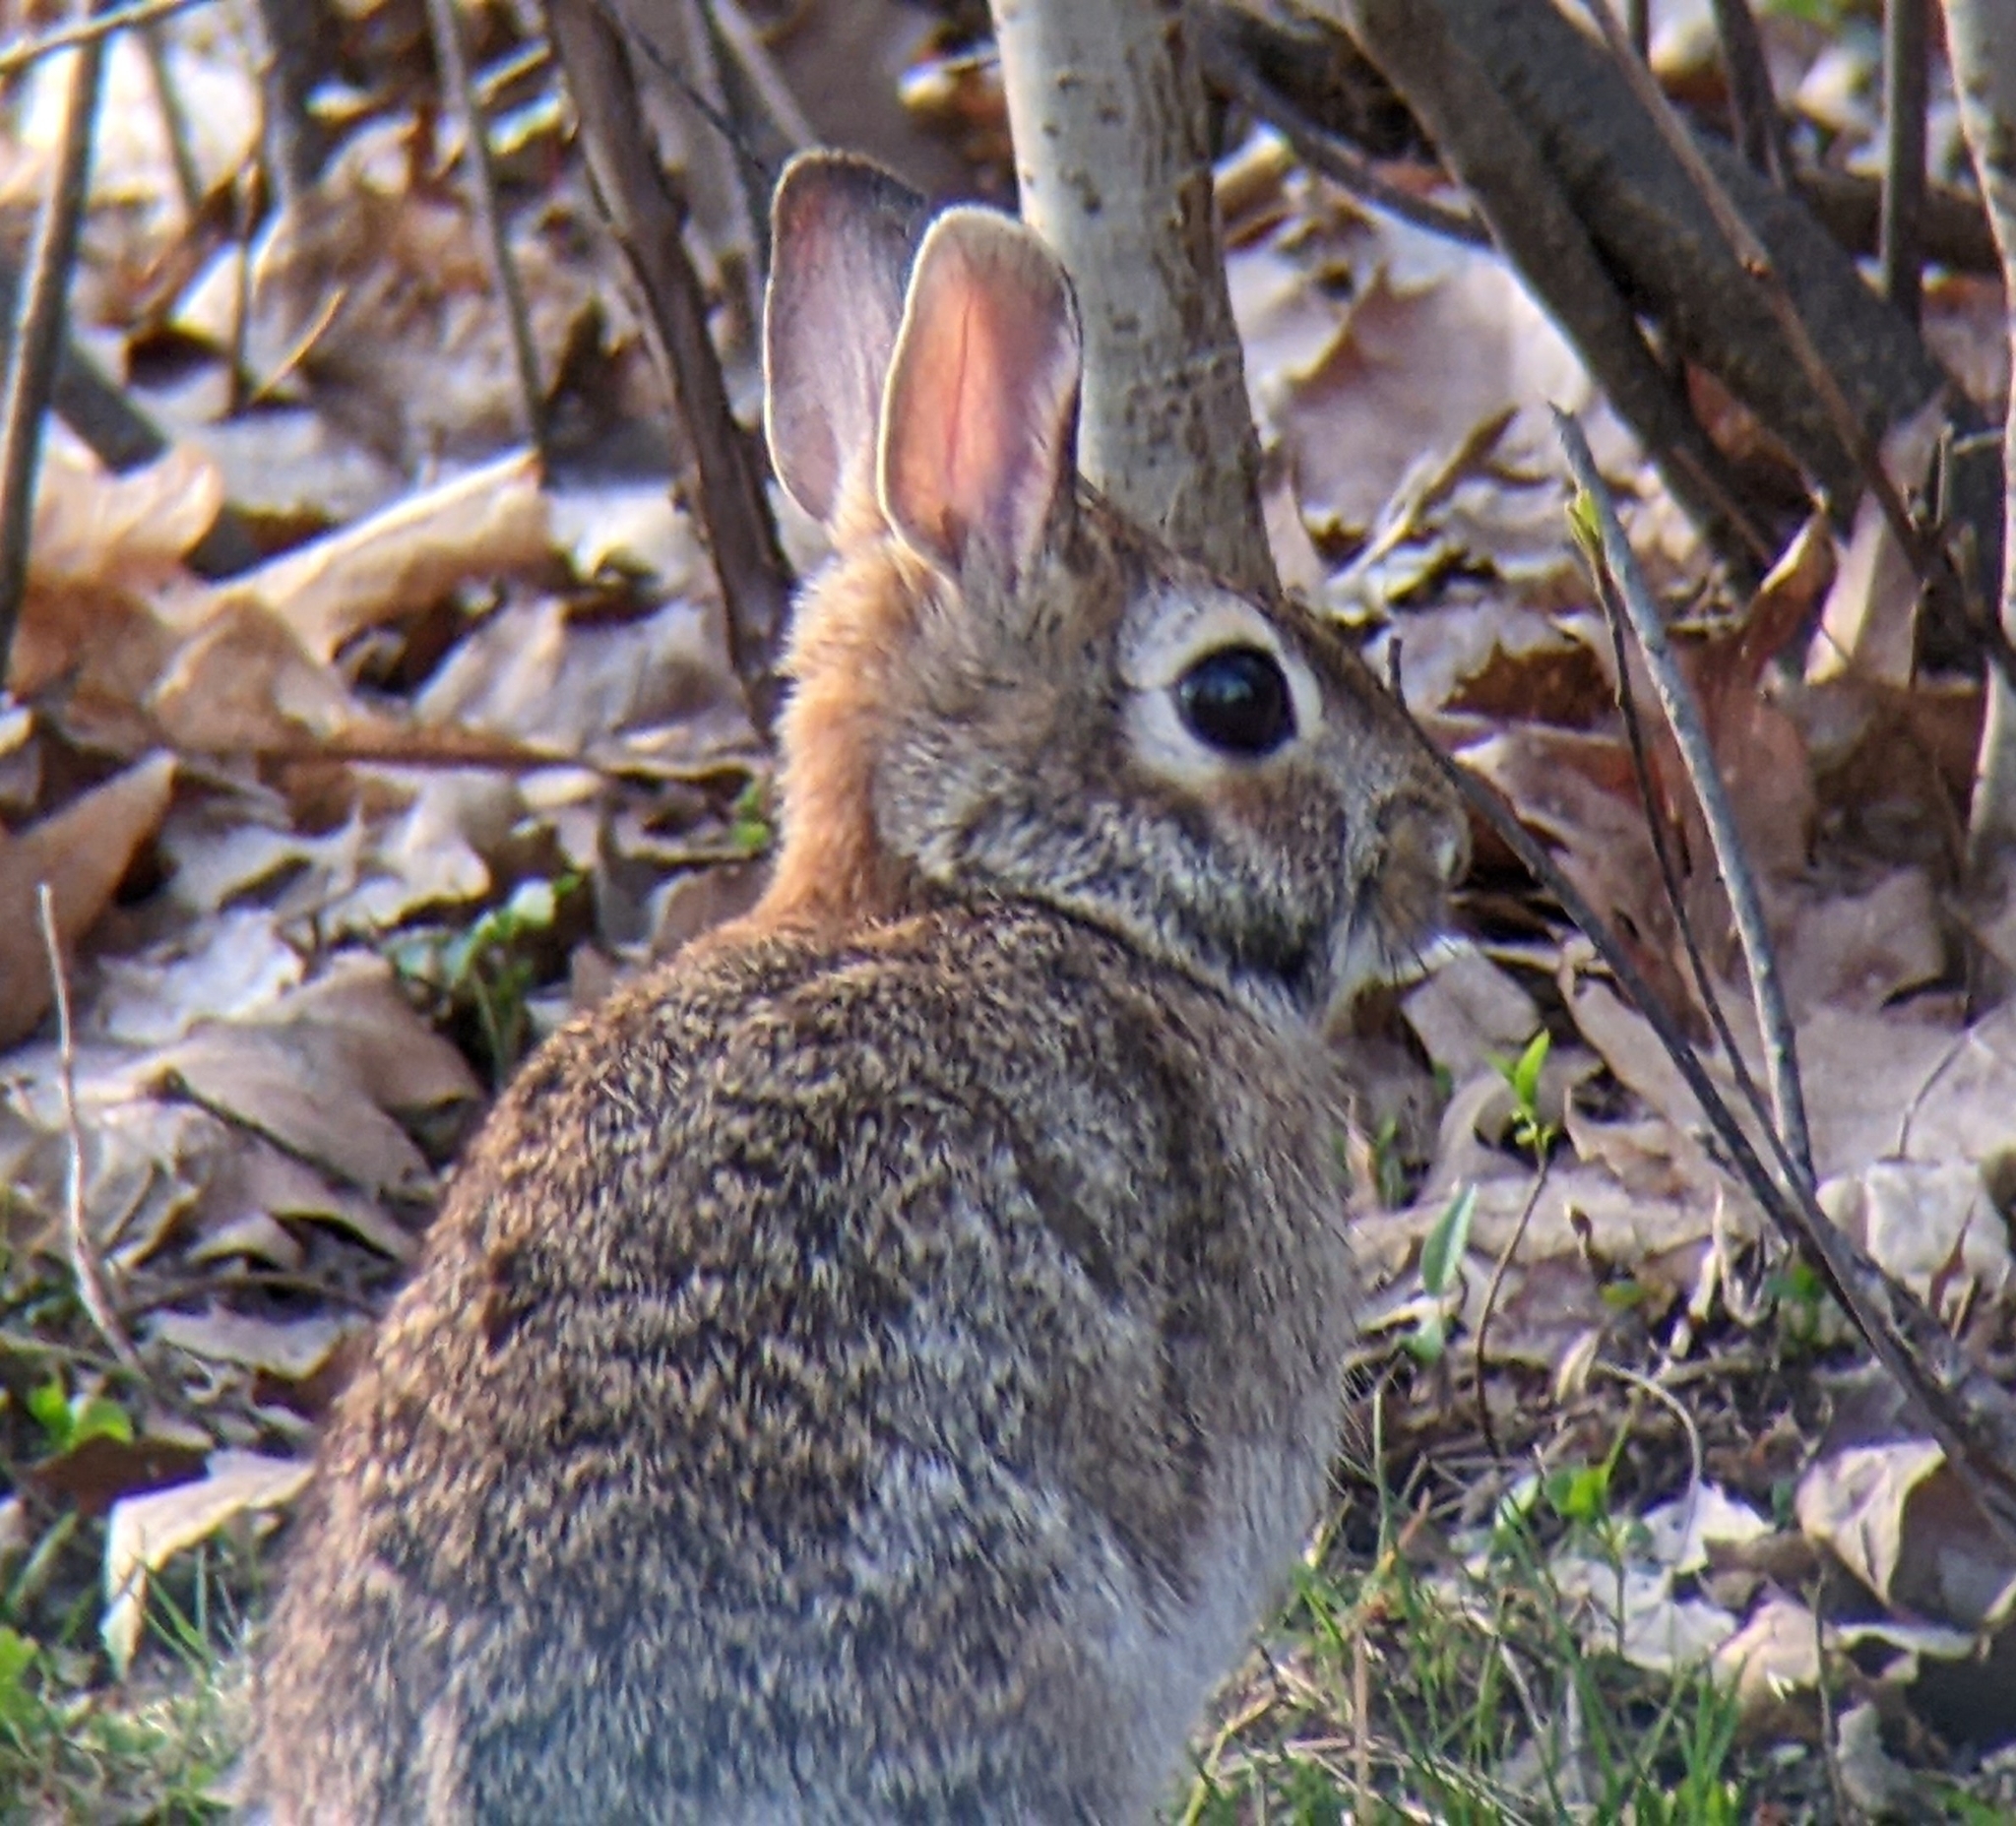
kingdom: Animalia
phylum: Chordata
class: Mammalia
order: Lagomorpha
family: Leporidae
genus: Sylvilagus
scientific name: Sylvilagus floridanus
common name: Eastern cottontail
